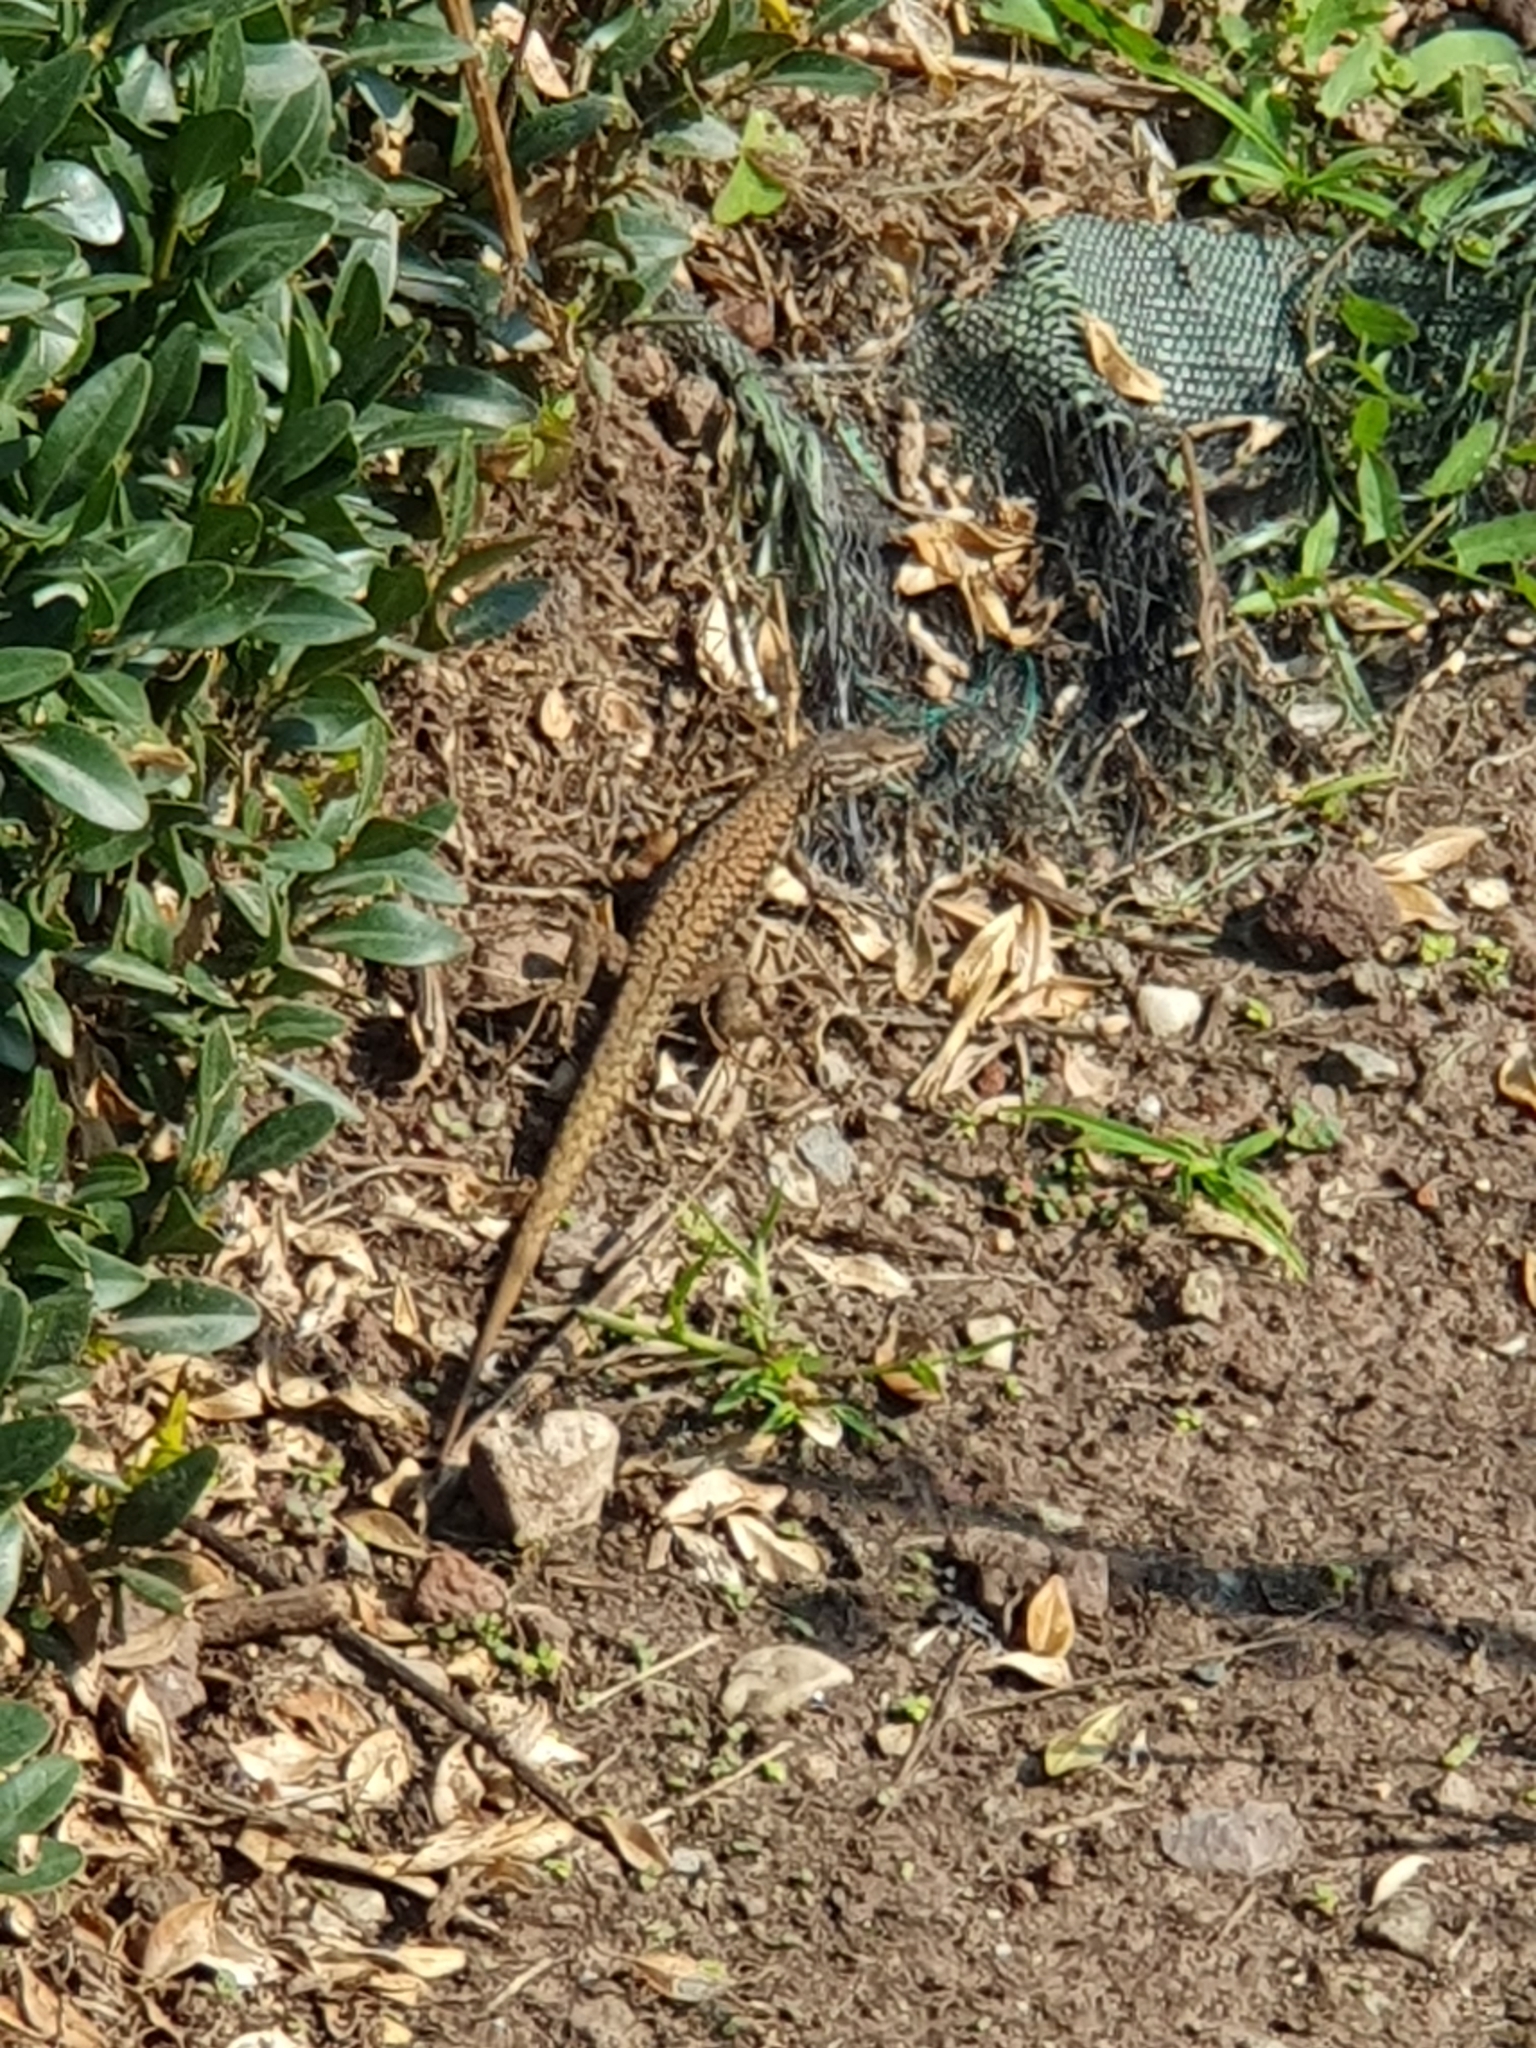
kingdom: Animalia
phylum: Chordata
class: Squamata
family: Lacertidae
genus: Podarcis
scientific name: Podarcis muralis
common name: Common wall lizard
